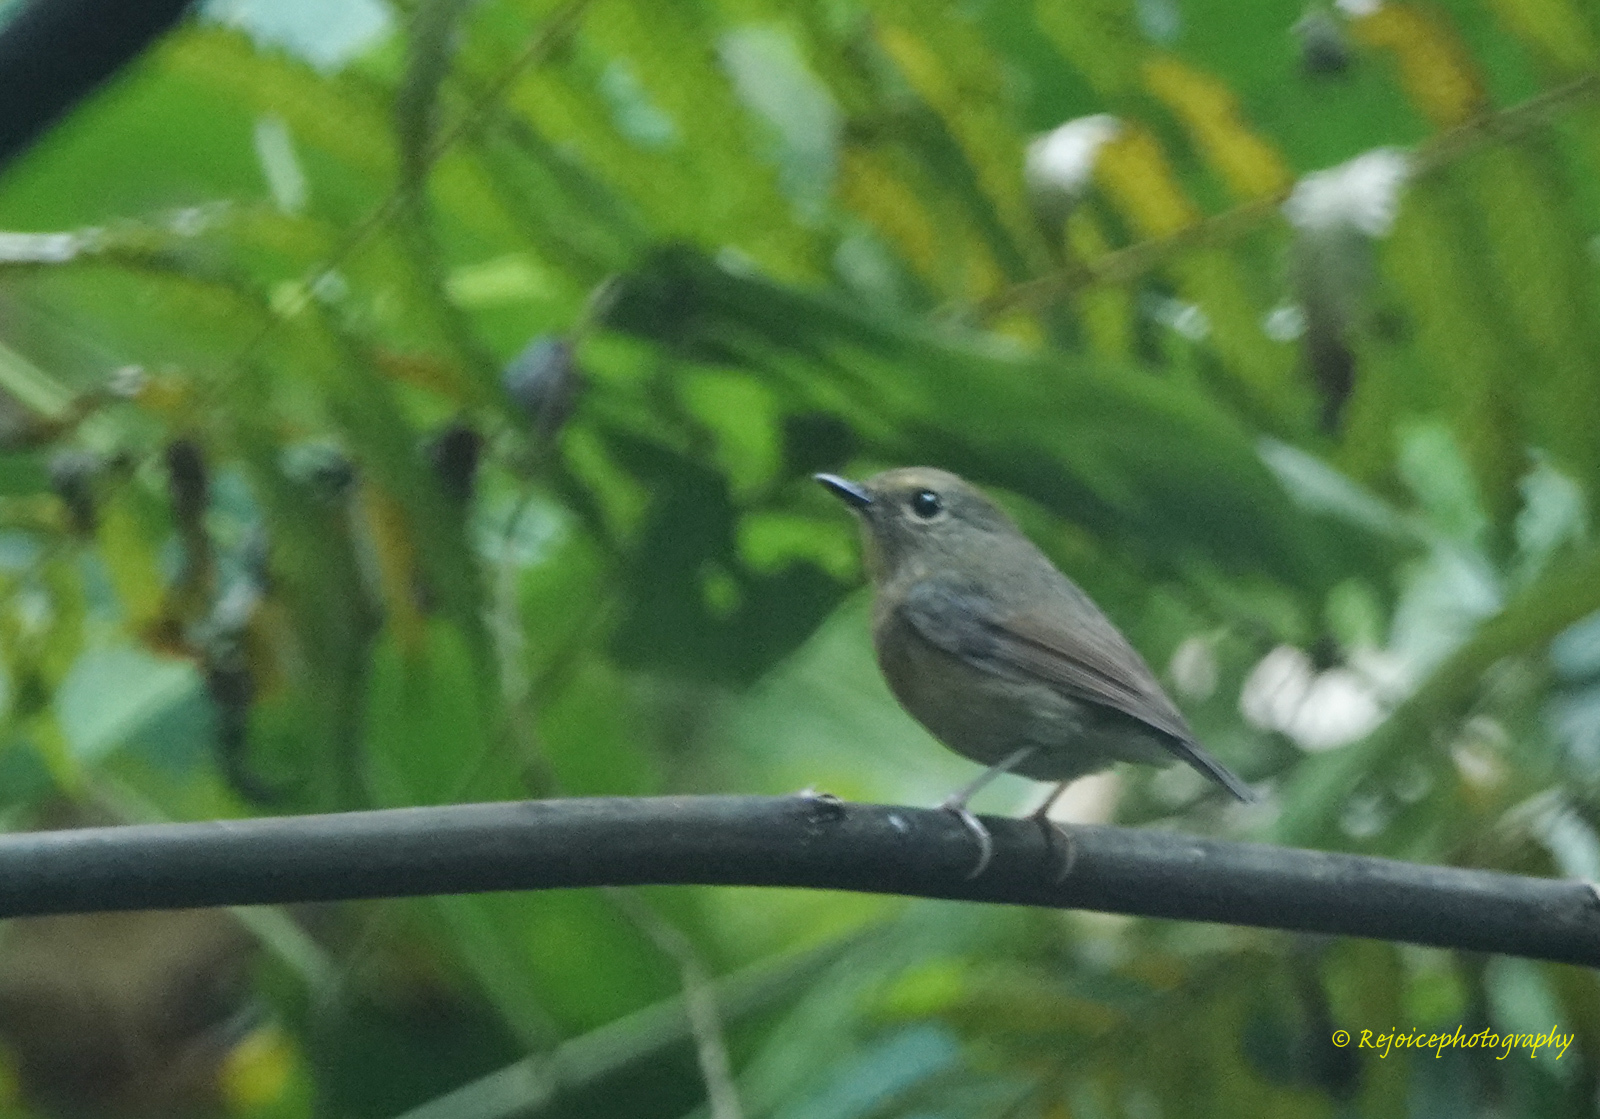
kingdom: Animalia
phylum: Chordata
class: Aves
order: Passeriformes
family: Muscicapidae
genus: Ficedula
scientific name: Ficedula hyperythra
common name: Snowy-browed flycatcher
